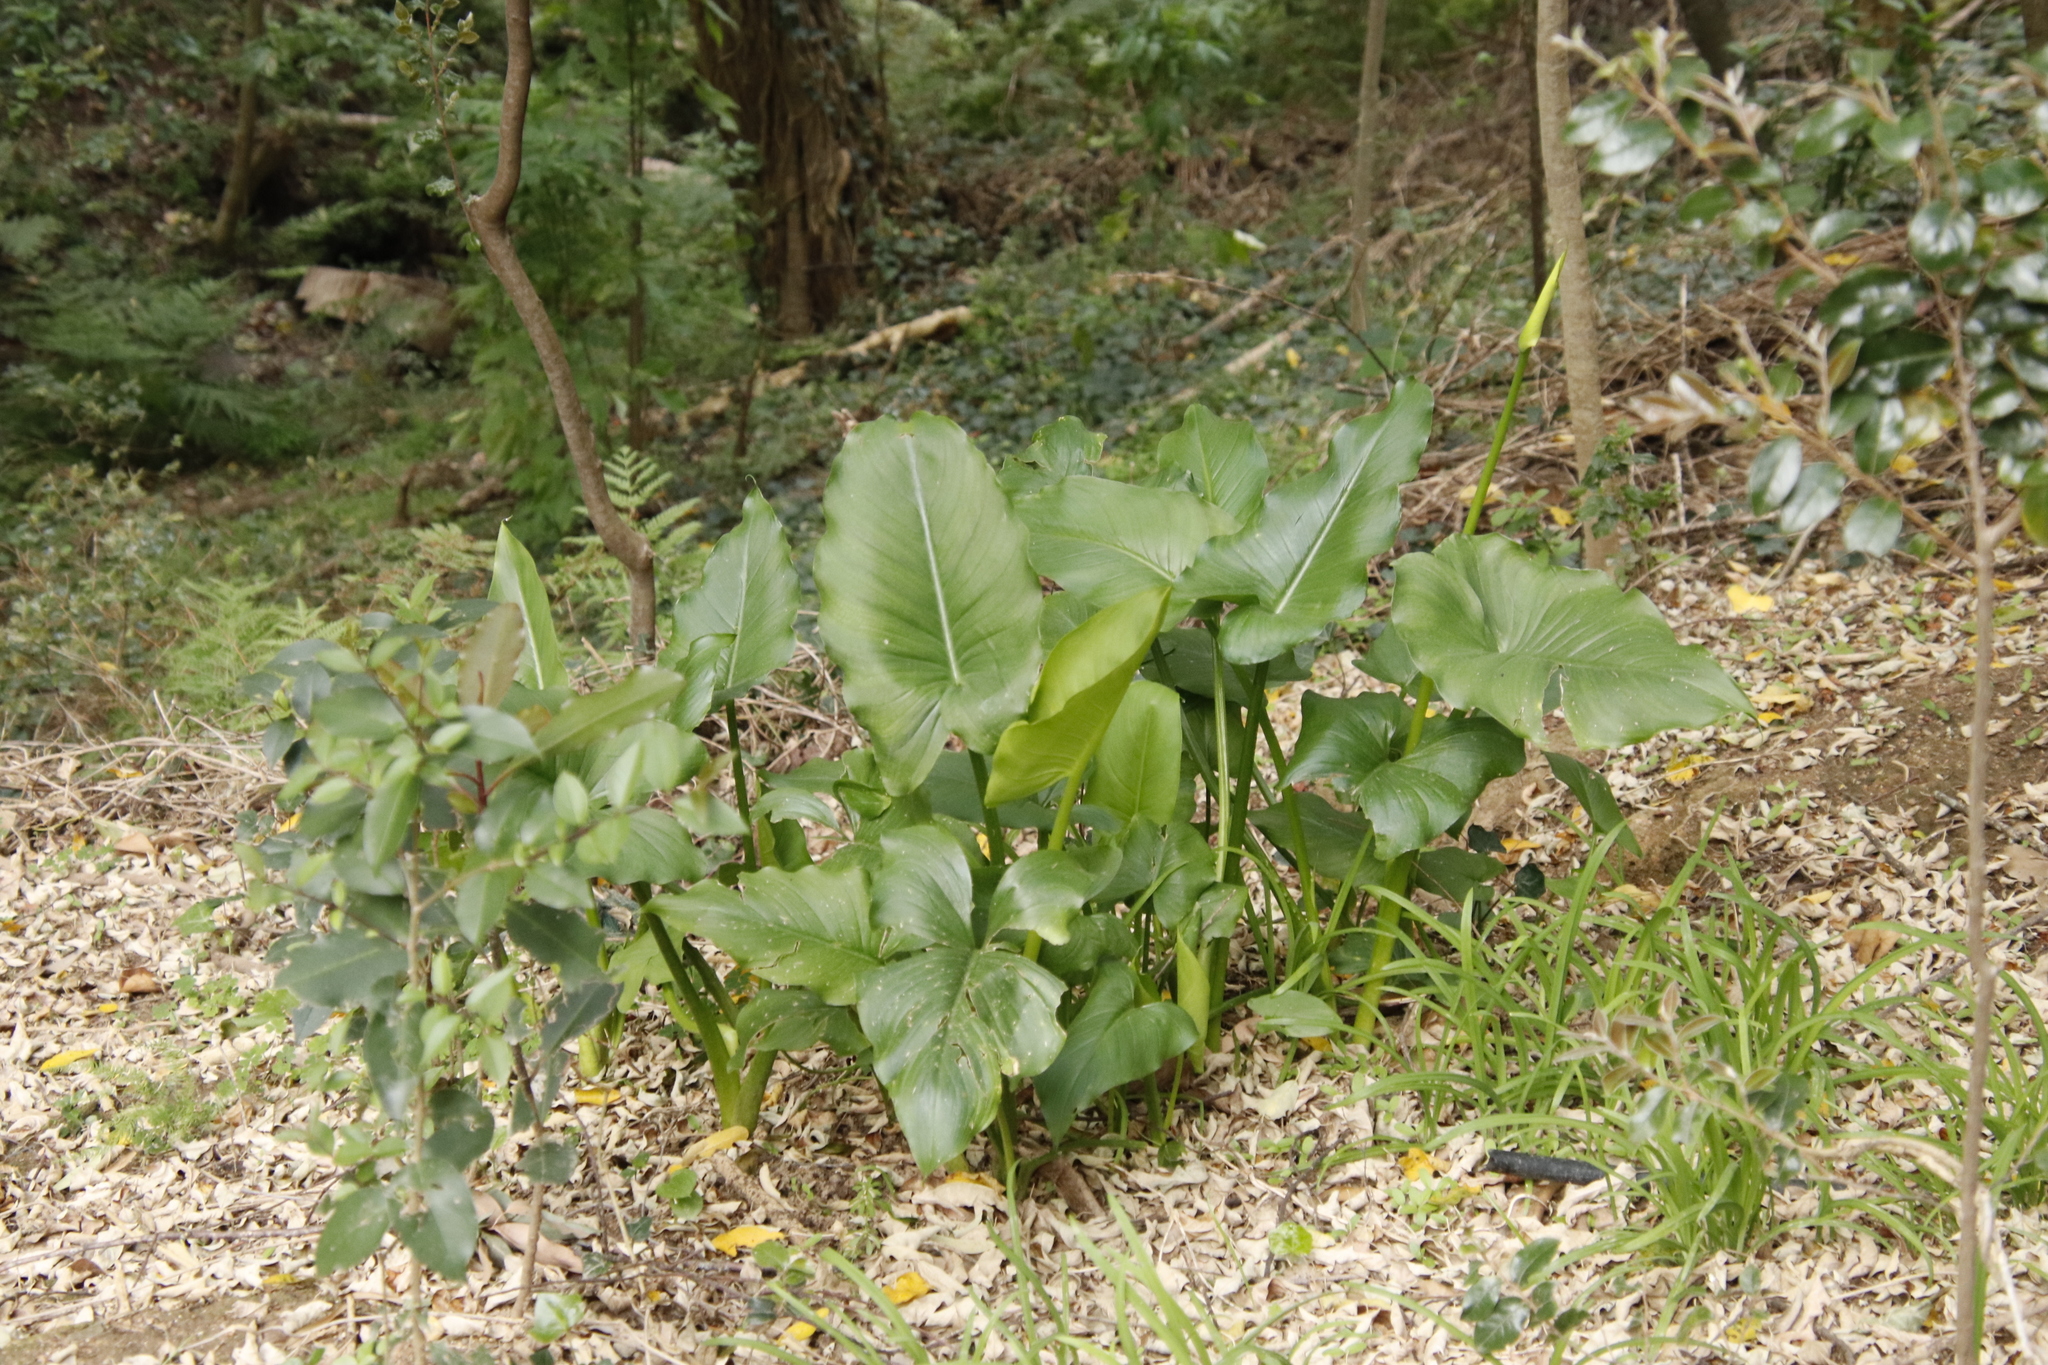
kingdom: Plantae
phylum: Tracheophyta
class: Liliopsida
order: Alismatales
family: Araceae
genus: Zantedeschia
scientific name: Zantedeschia aethiopica
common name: Altar-lily
